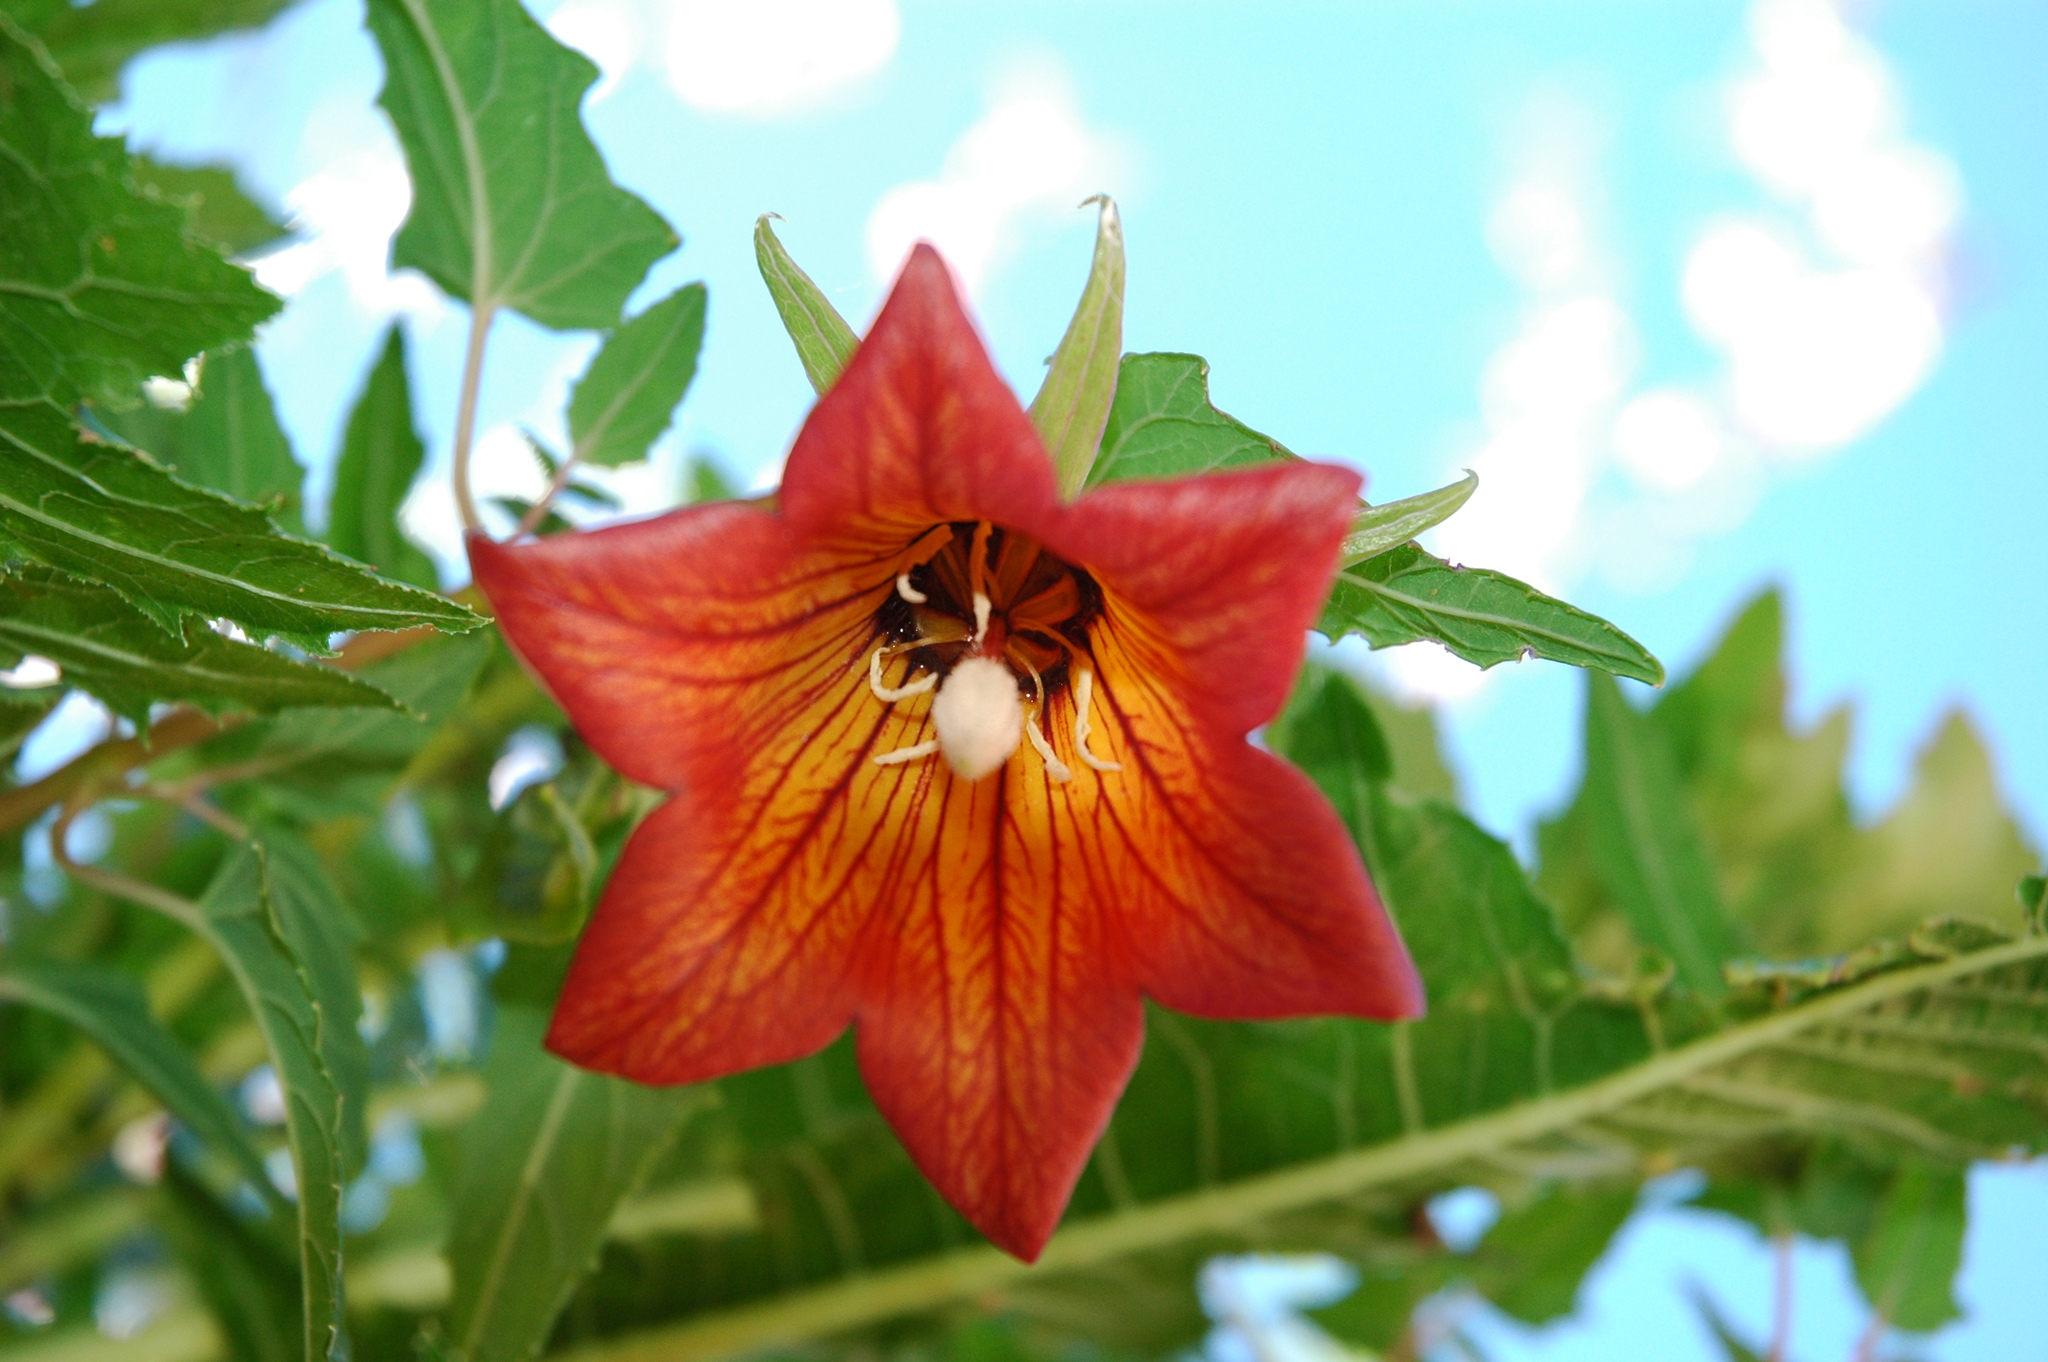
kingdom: Plantae
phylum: Tracheophyta
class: Magnoliopsida
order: Asterales
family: Campanulaceae
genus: Canarina
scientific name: Canarina canariensis
